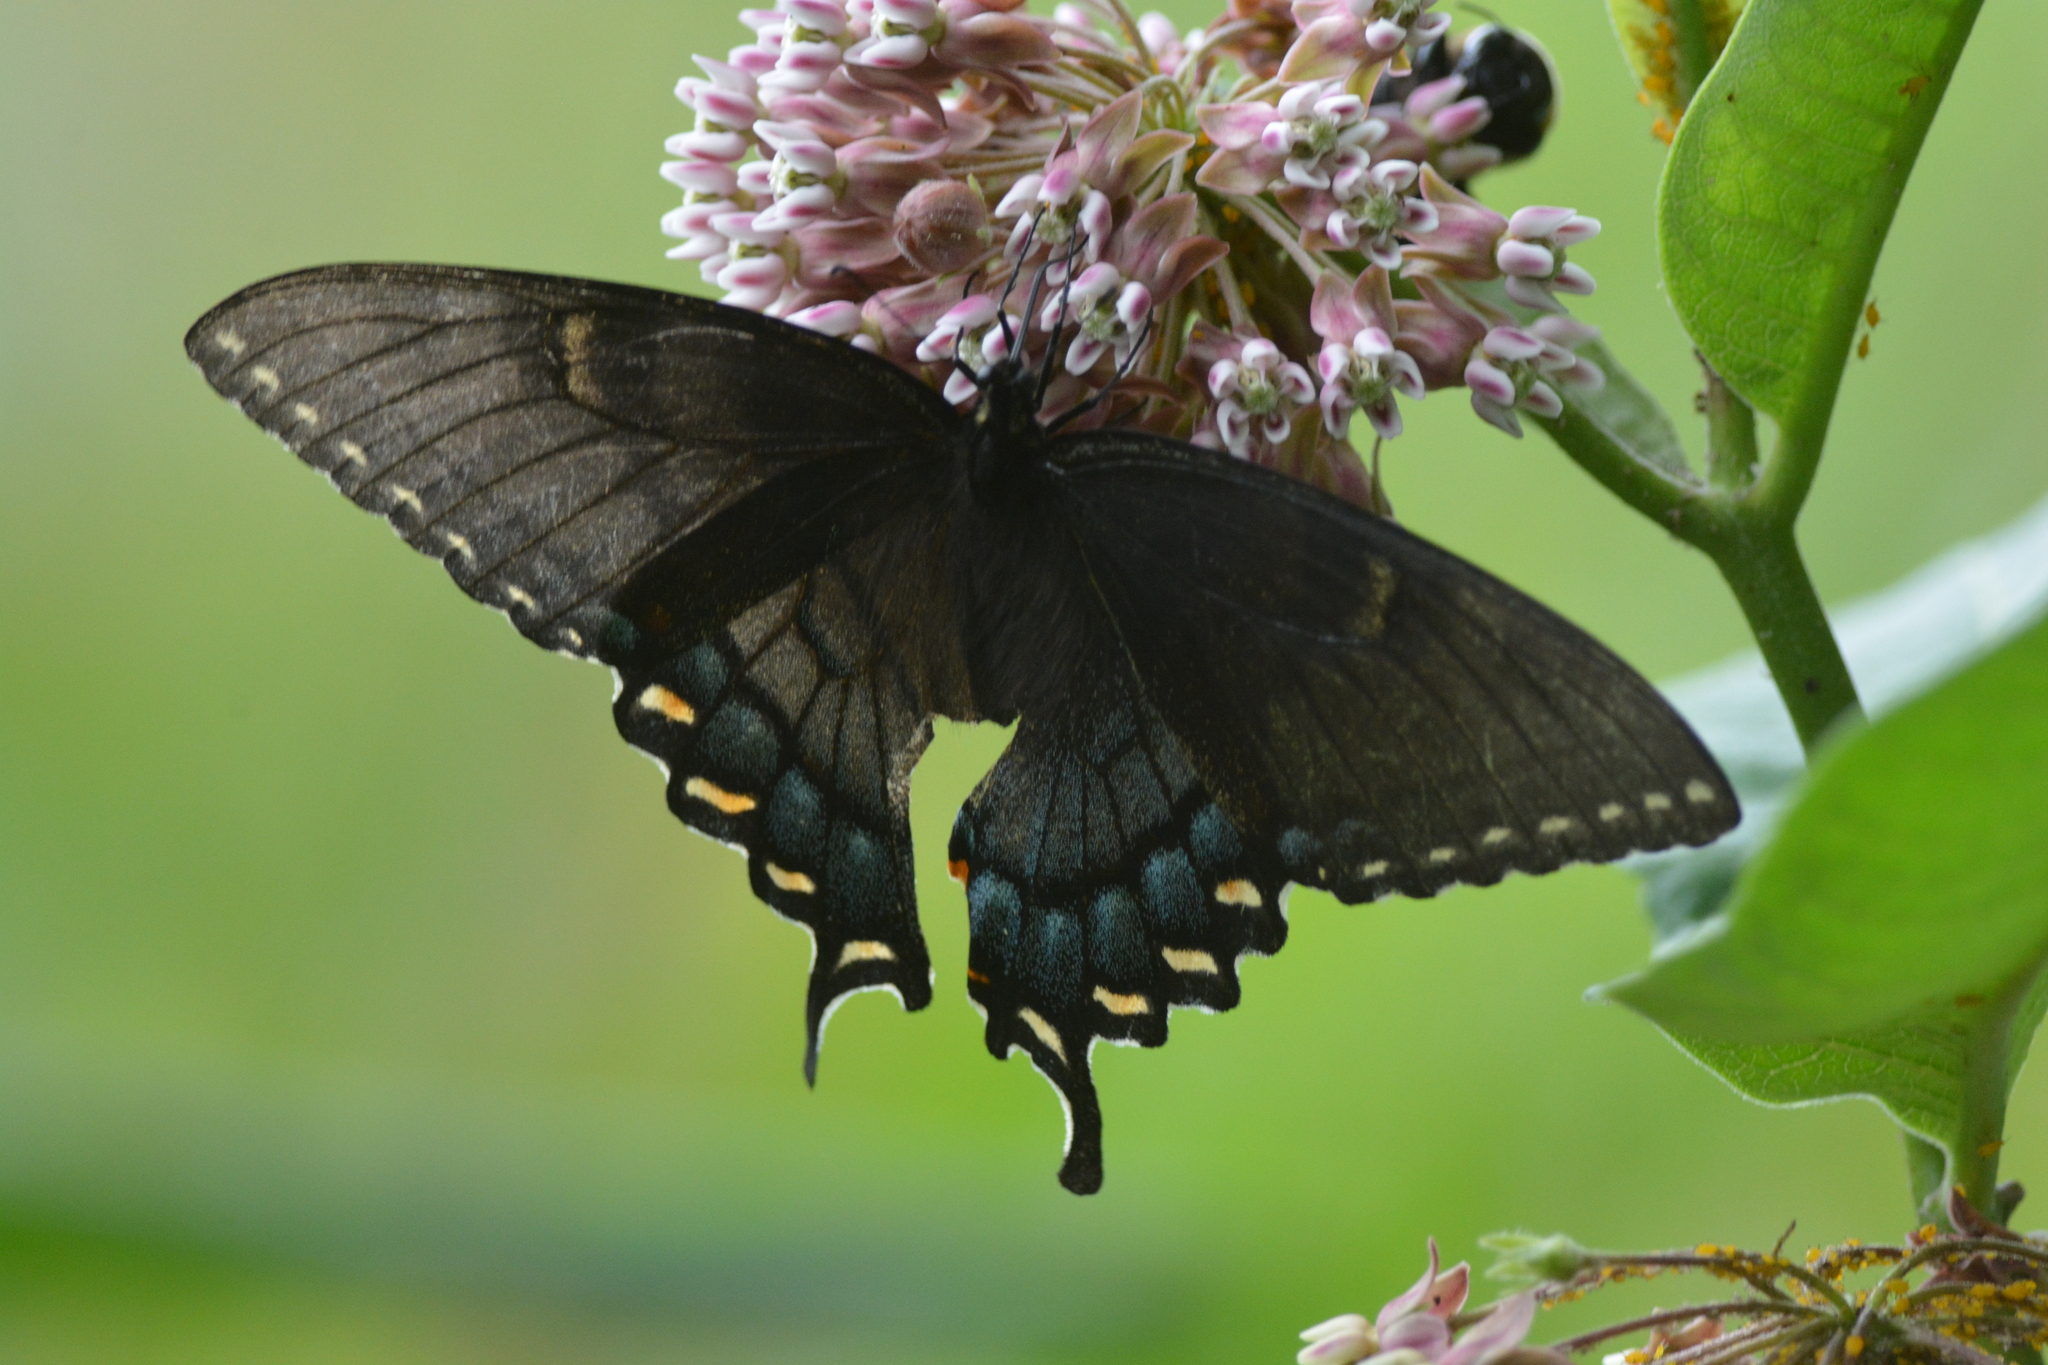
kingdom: Animalia
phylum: Arthropoda
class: Insecta
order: Lepidoptera
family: Papilionidae
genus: Papilio
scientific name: Papilio glaucus
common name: Tiger swallowtail
